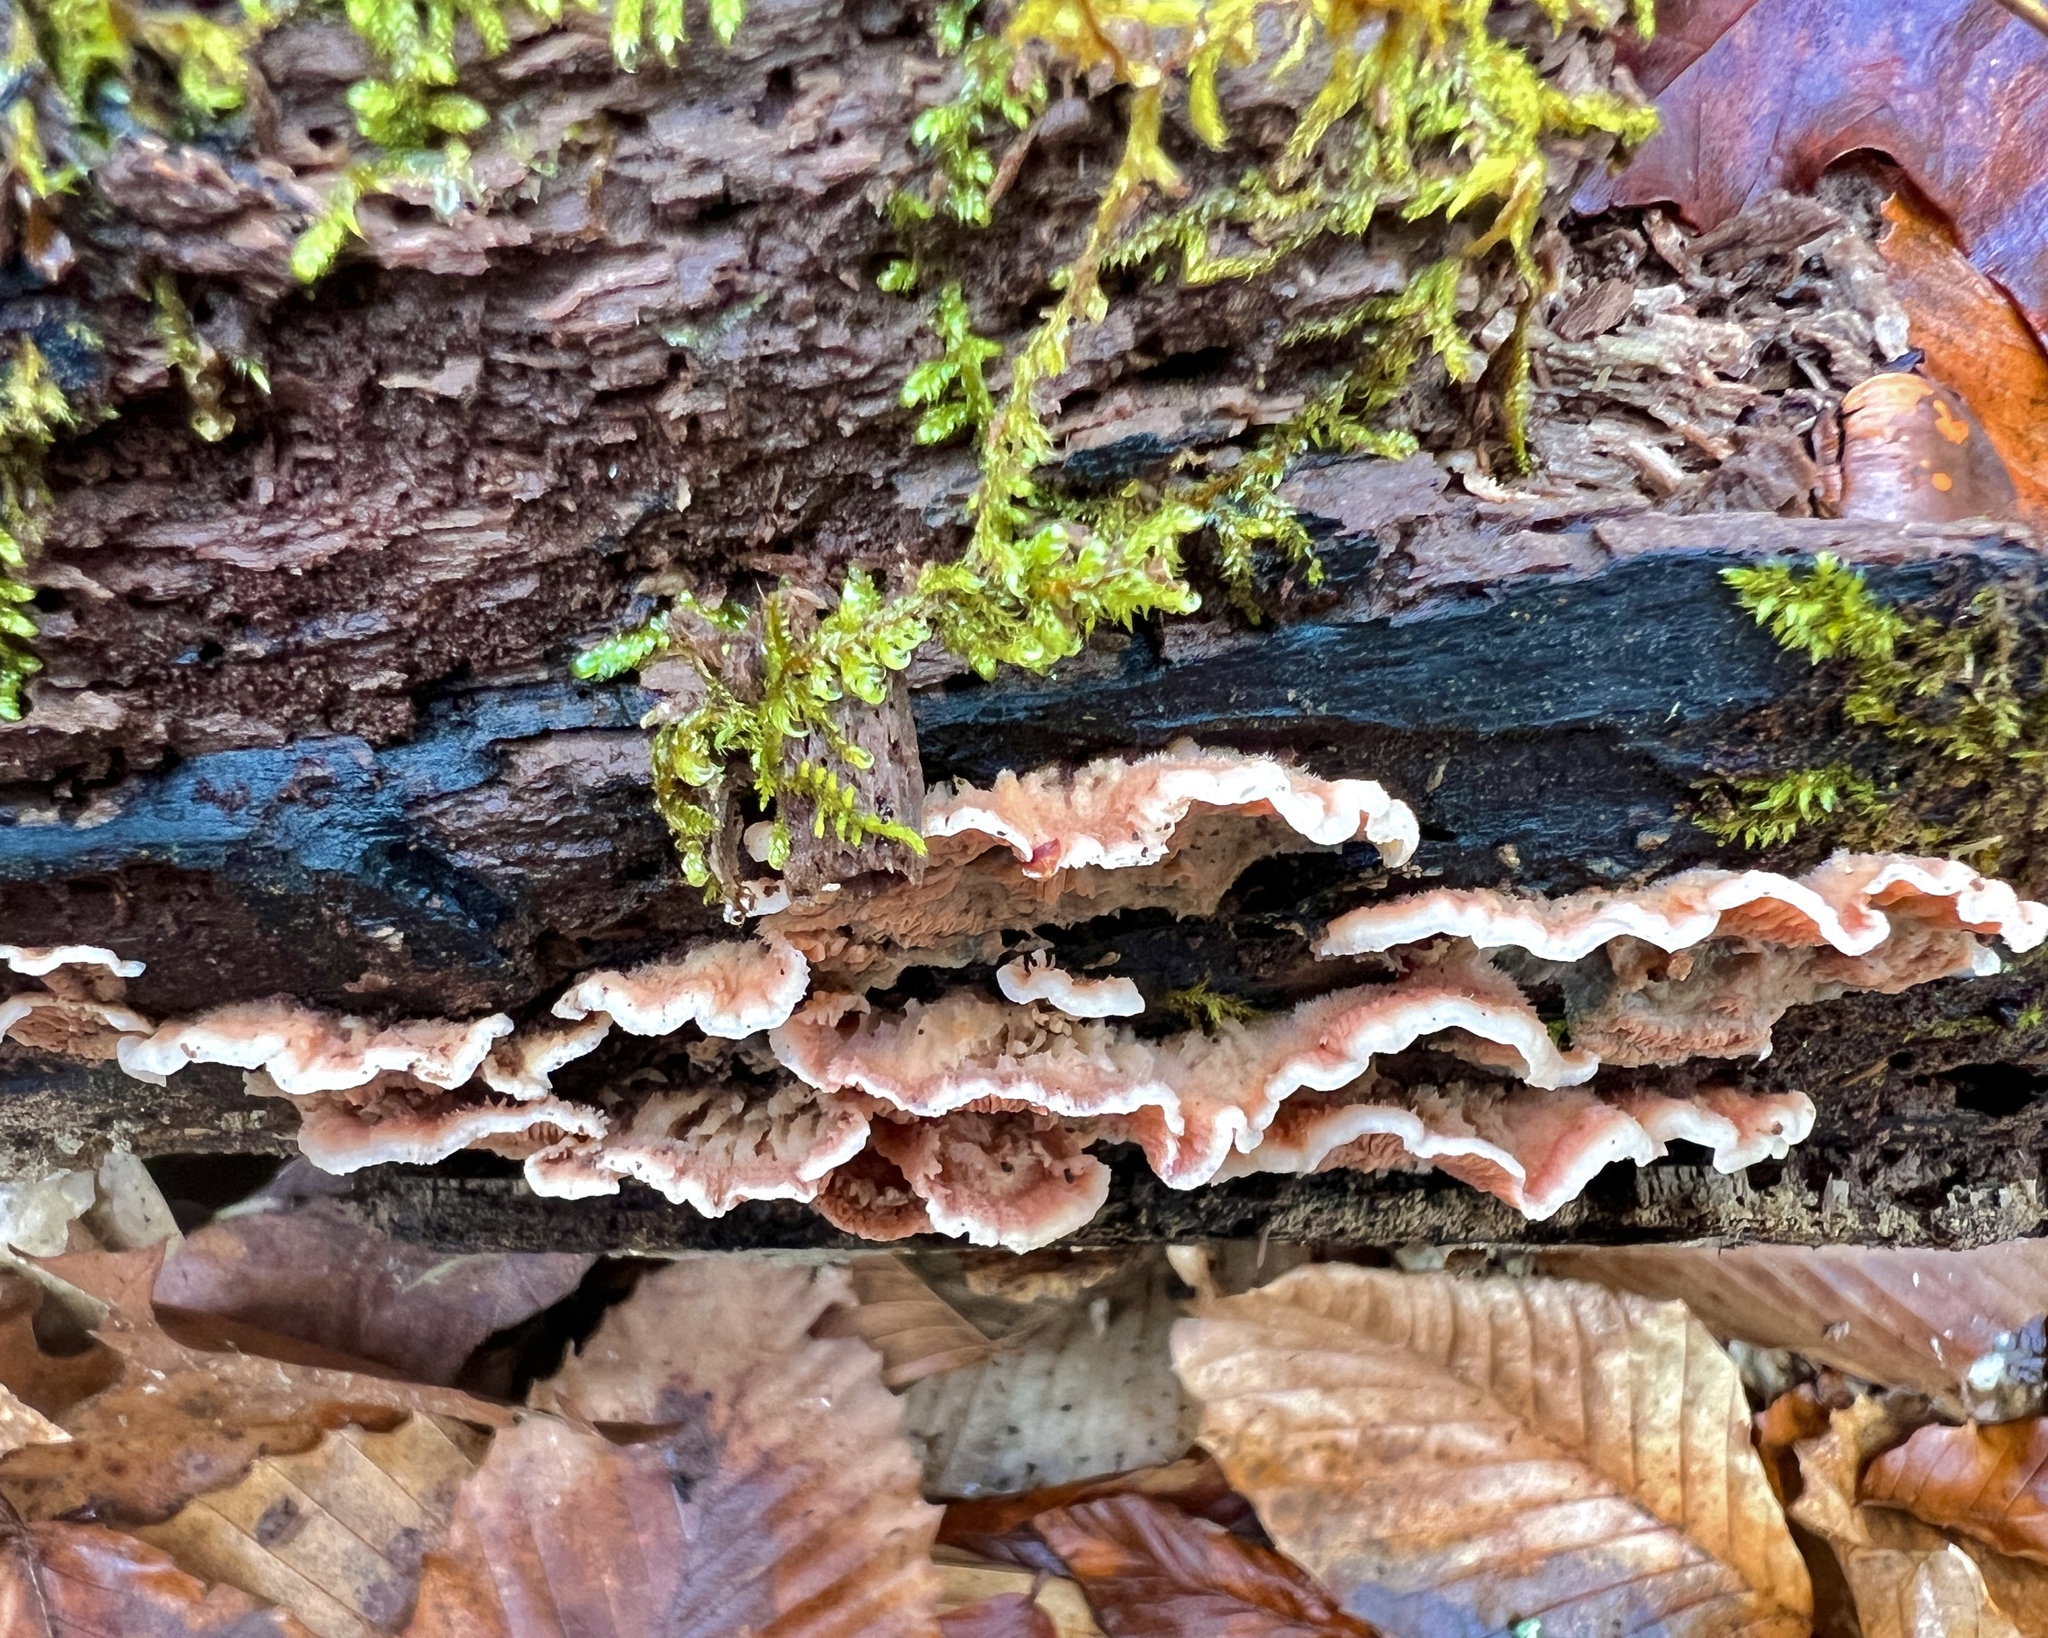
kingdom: Fungi
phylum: Basidiomycota
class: Agaricomycetes
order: Polyporales
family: Meruliaceae
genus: Phlebia
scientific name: Phlebia tremellosa
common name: Jelly rot
